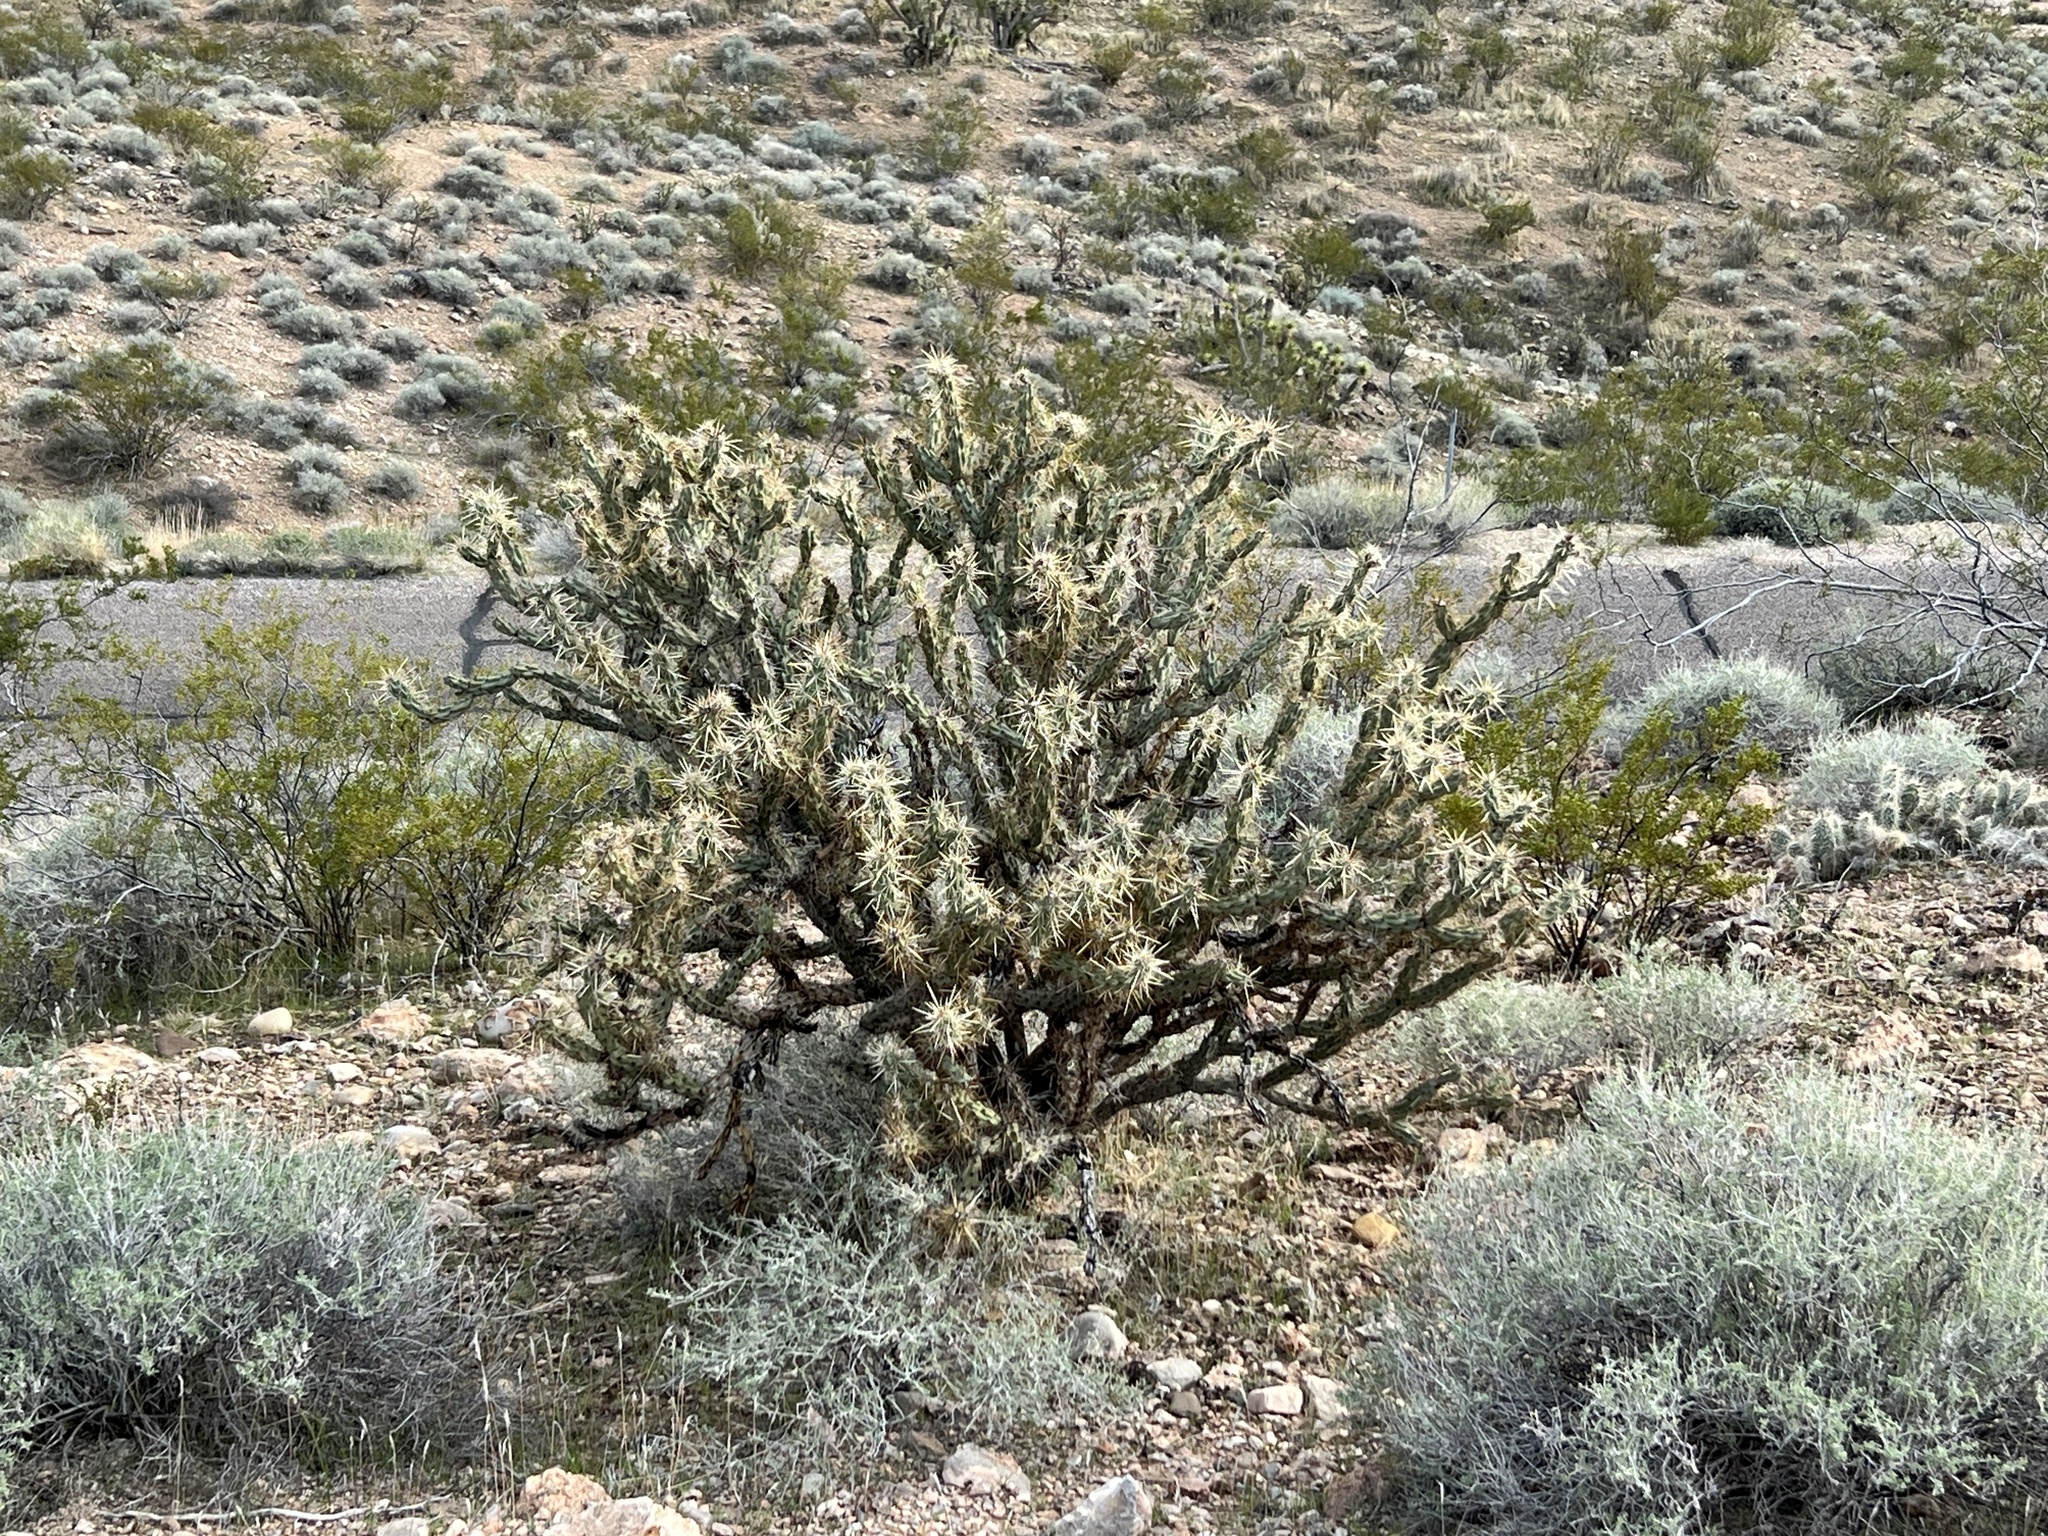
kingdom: Plantae
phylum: Tracheophyta
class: Magnoliopsida
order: Caryophyllales
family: Cactaceae
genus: Cylindropuntia
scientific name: Cylindropuntia acanthocarpa
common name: Buckhorn cholla
